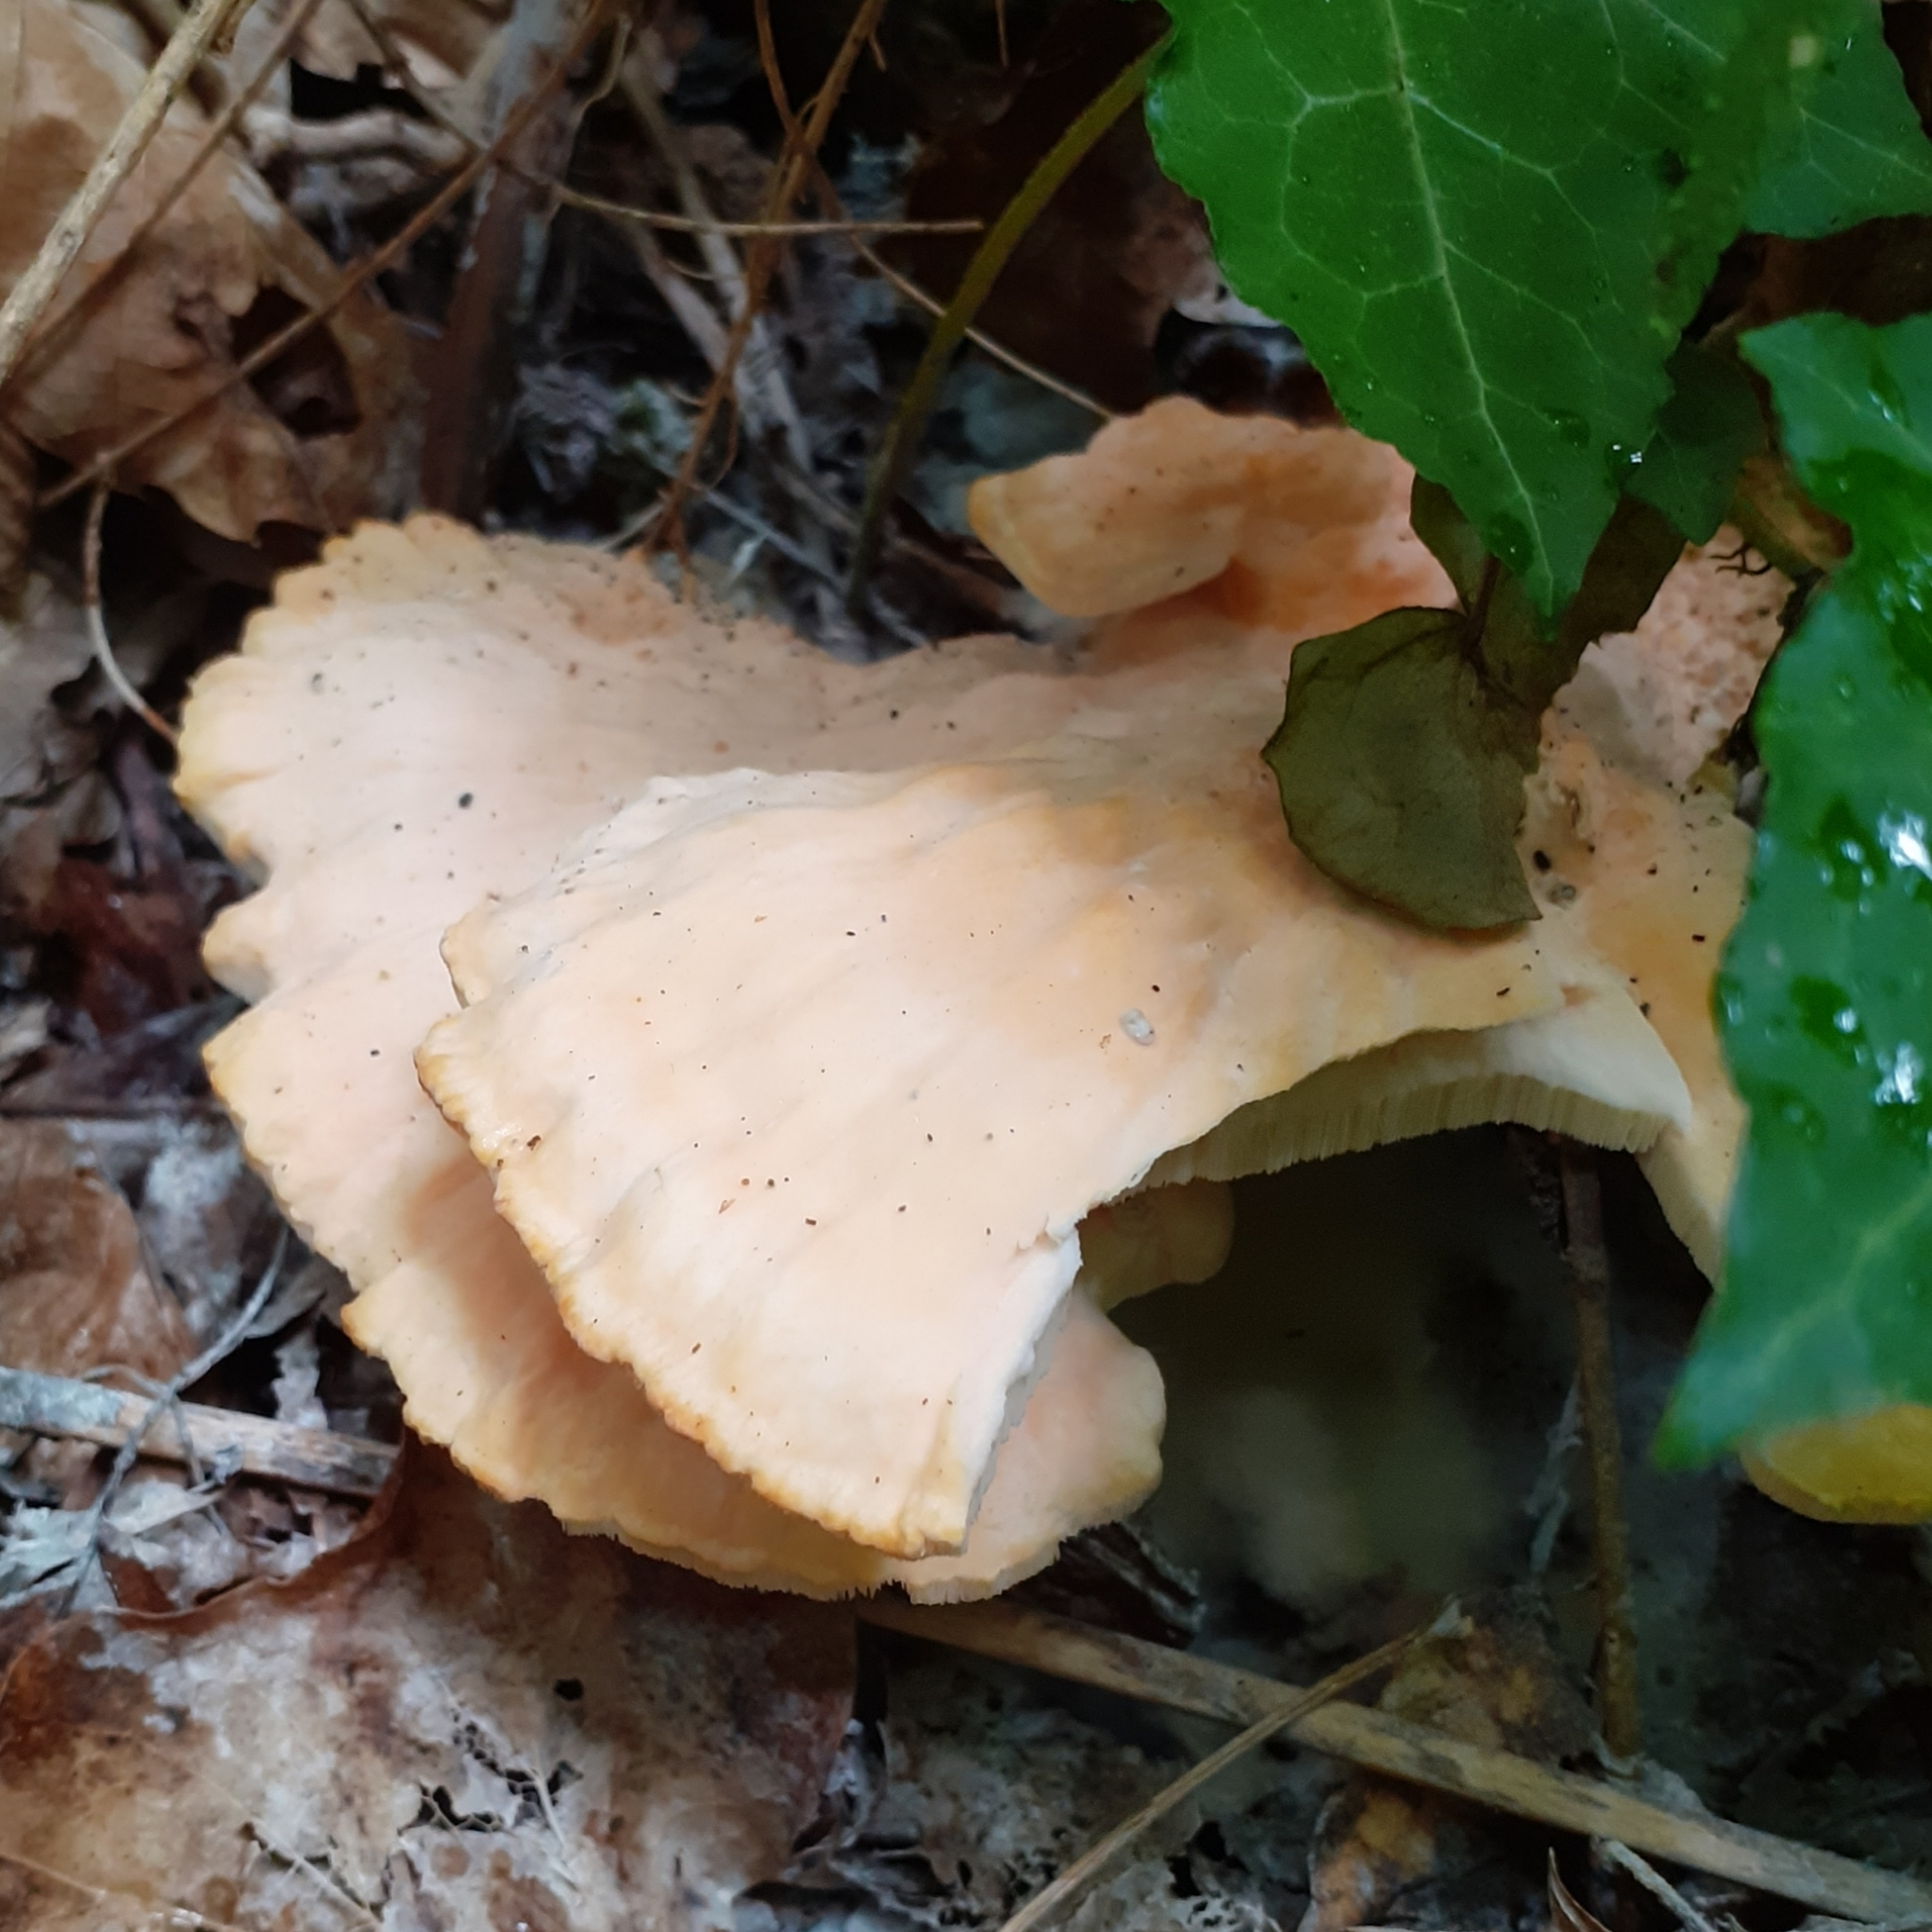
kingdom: Fungi
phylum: Basidiomycota
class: Agaricomycetes
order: Polyporales
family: Laetiporaceae
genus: Laetiporus
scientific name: Laetiporus sulphureus
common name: Chicken of the woods
